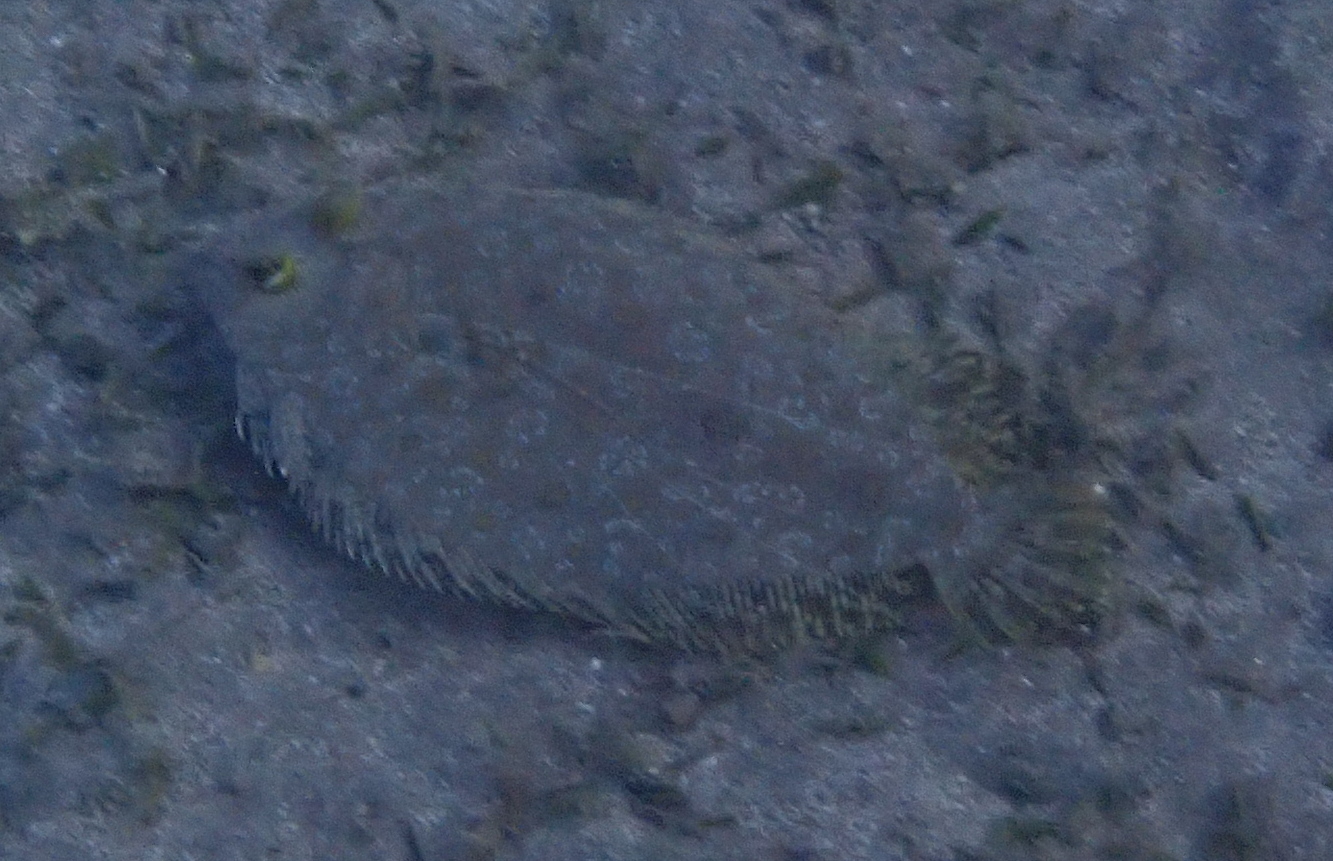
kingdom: Animalia
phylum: Chordata
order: Pleuronectiformes
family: Bothidae
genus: Bothus
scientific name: Bothus pantherinus
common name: Leopard flounder
